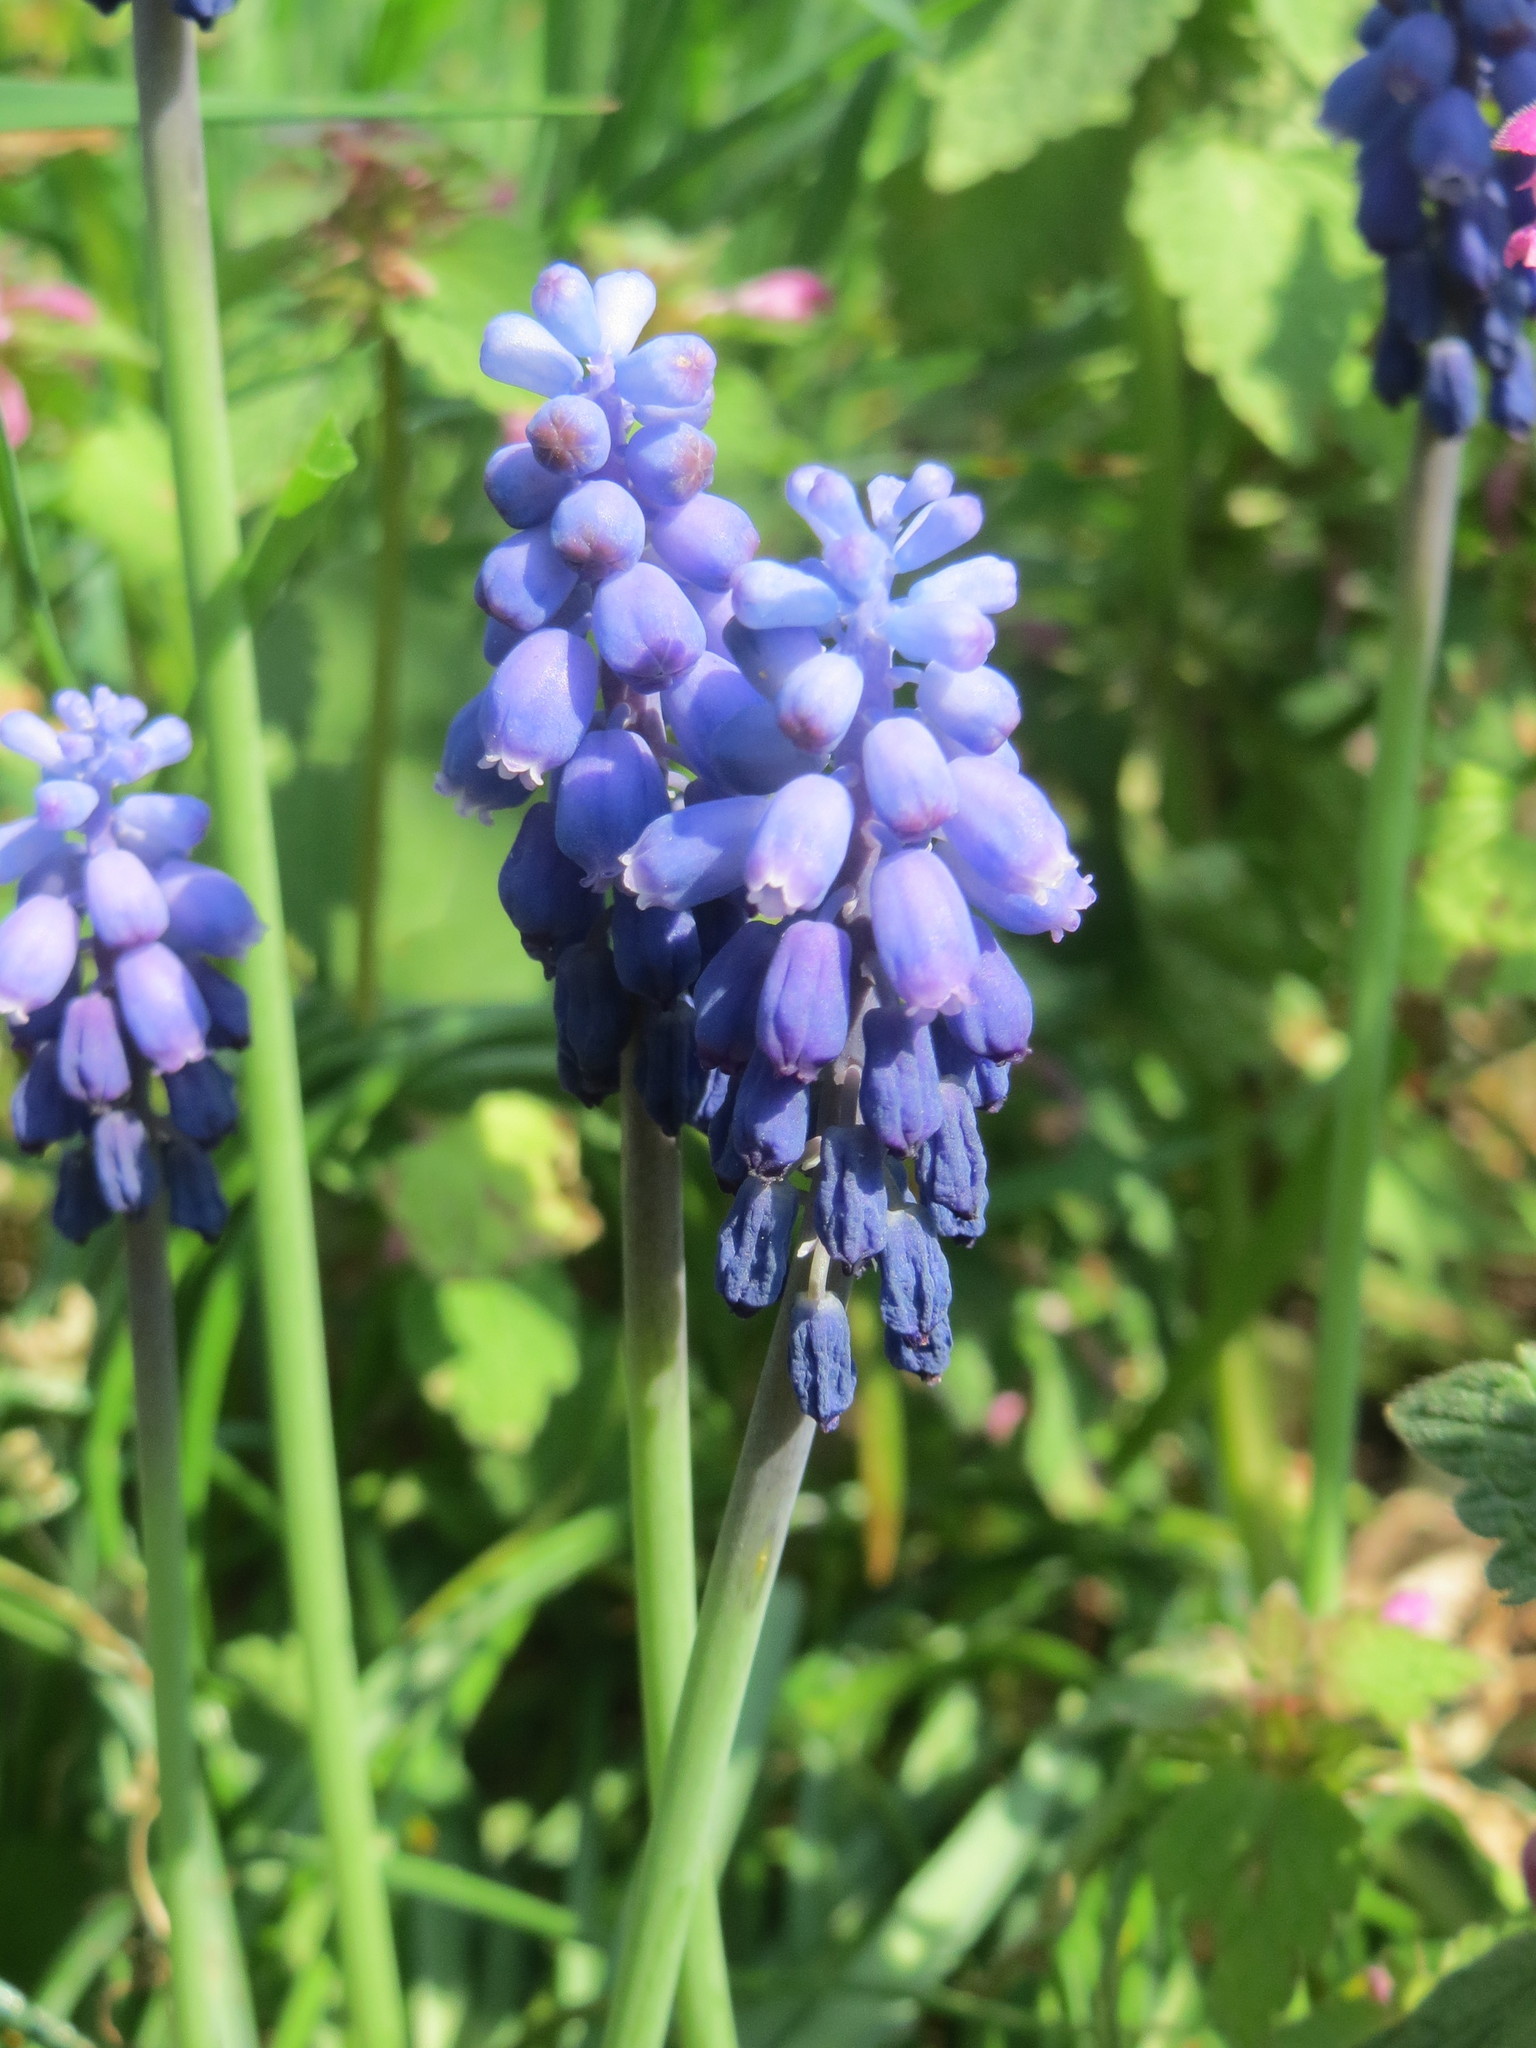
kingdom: Plantae
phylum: Tracheophyta
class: Liliopsida
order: Asparagales
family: Asparagaceae
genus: Muscari
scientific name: Muscari armeniacum
